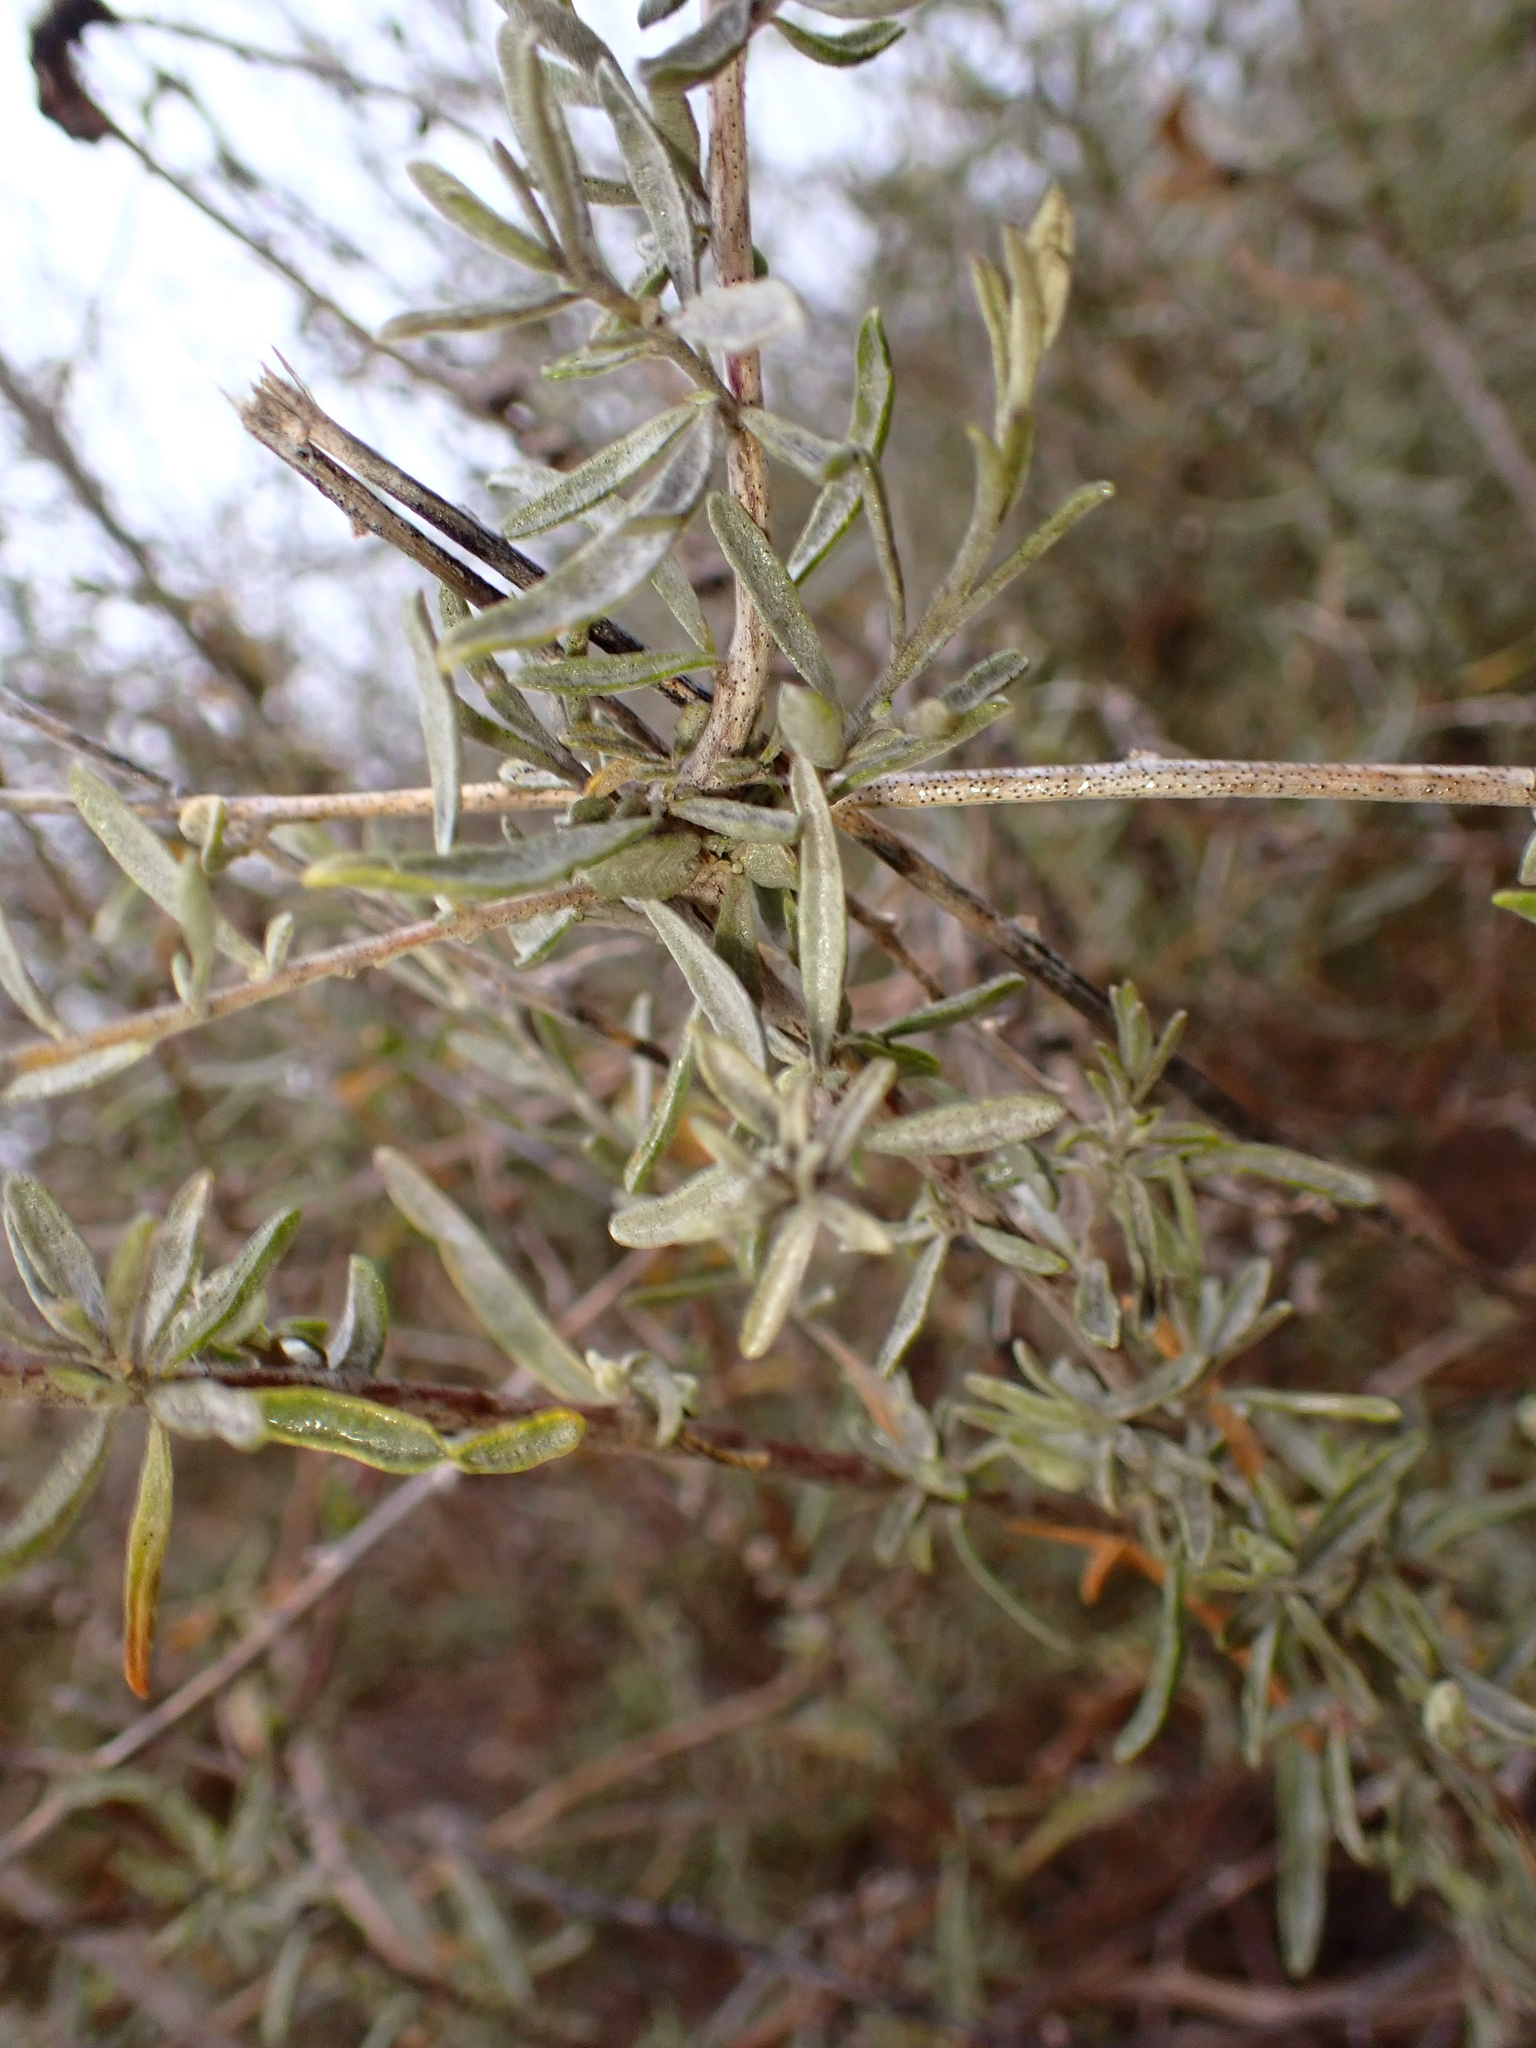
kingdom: Plantae
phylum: Tracheophyta
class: Magnoliopsida
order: Caryophyllales
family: Amaranthaceae
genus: Atriplex
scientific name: Atriplex canescens
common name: Four-wing saltbush
